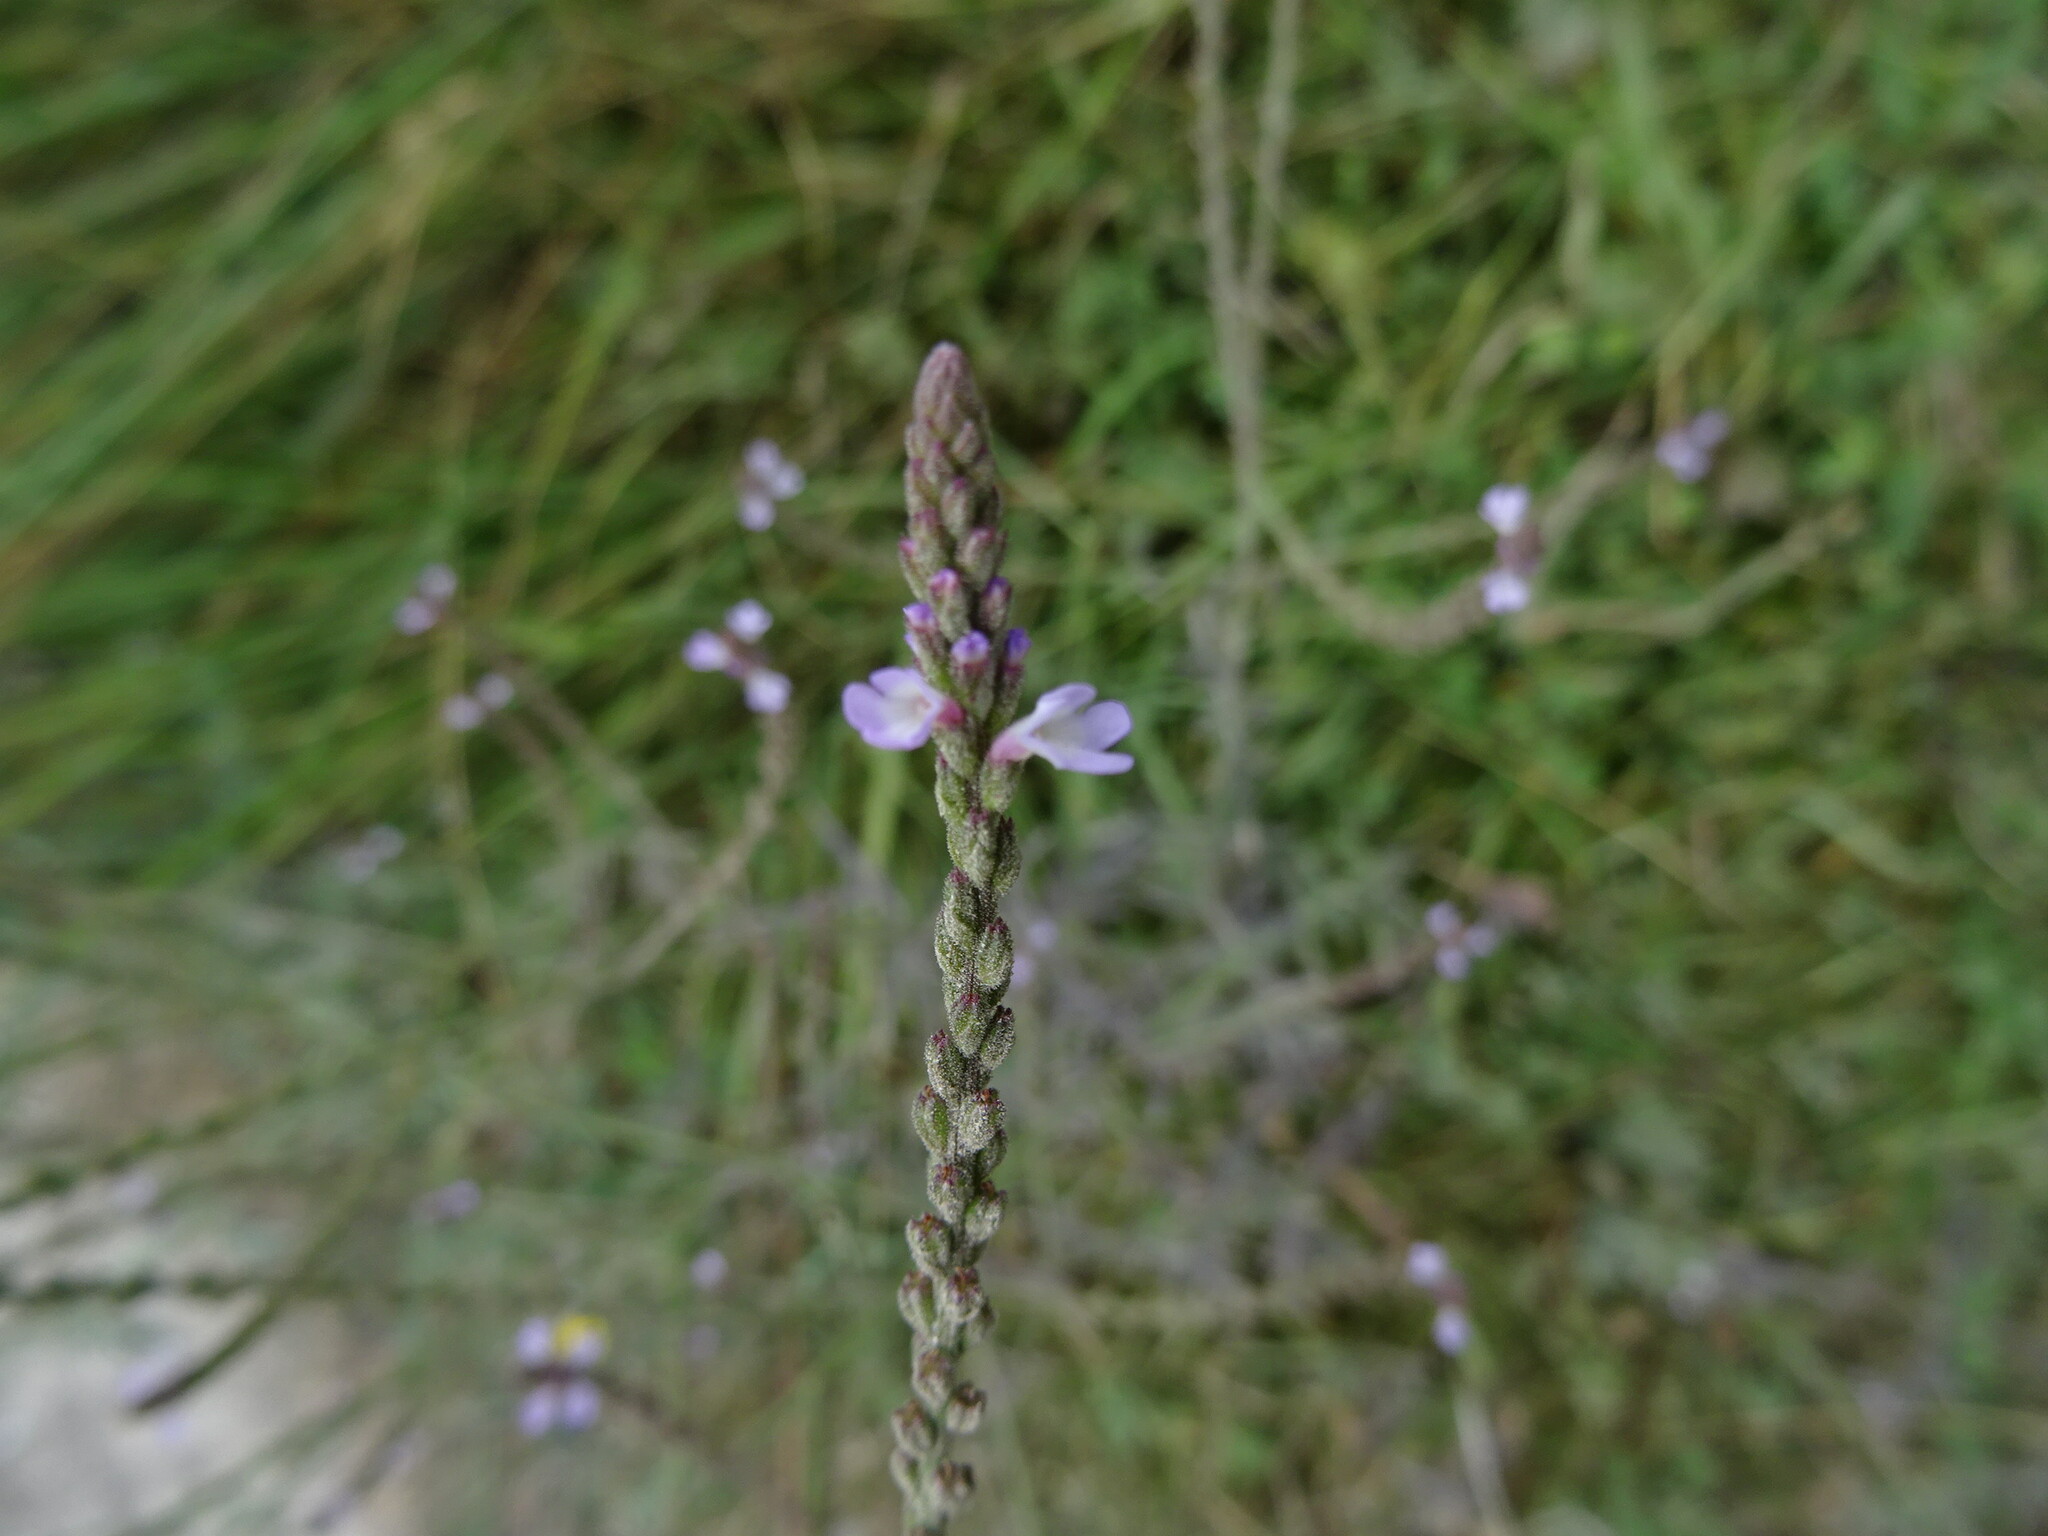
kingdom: Plantae
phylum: Tracheophyta
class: Magnoliopsida
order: Lamiales
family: Verbenaceae
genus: Verbena
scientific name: Verbena officinalis
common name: Vervain
